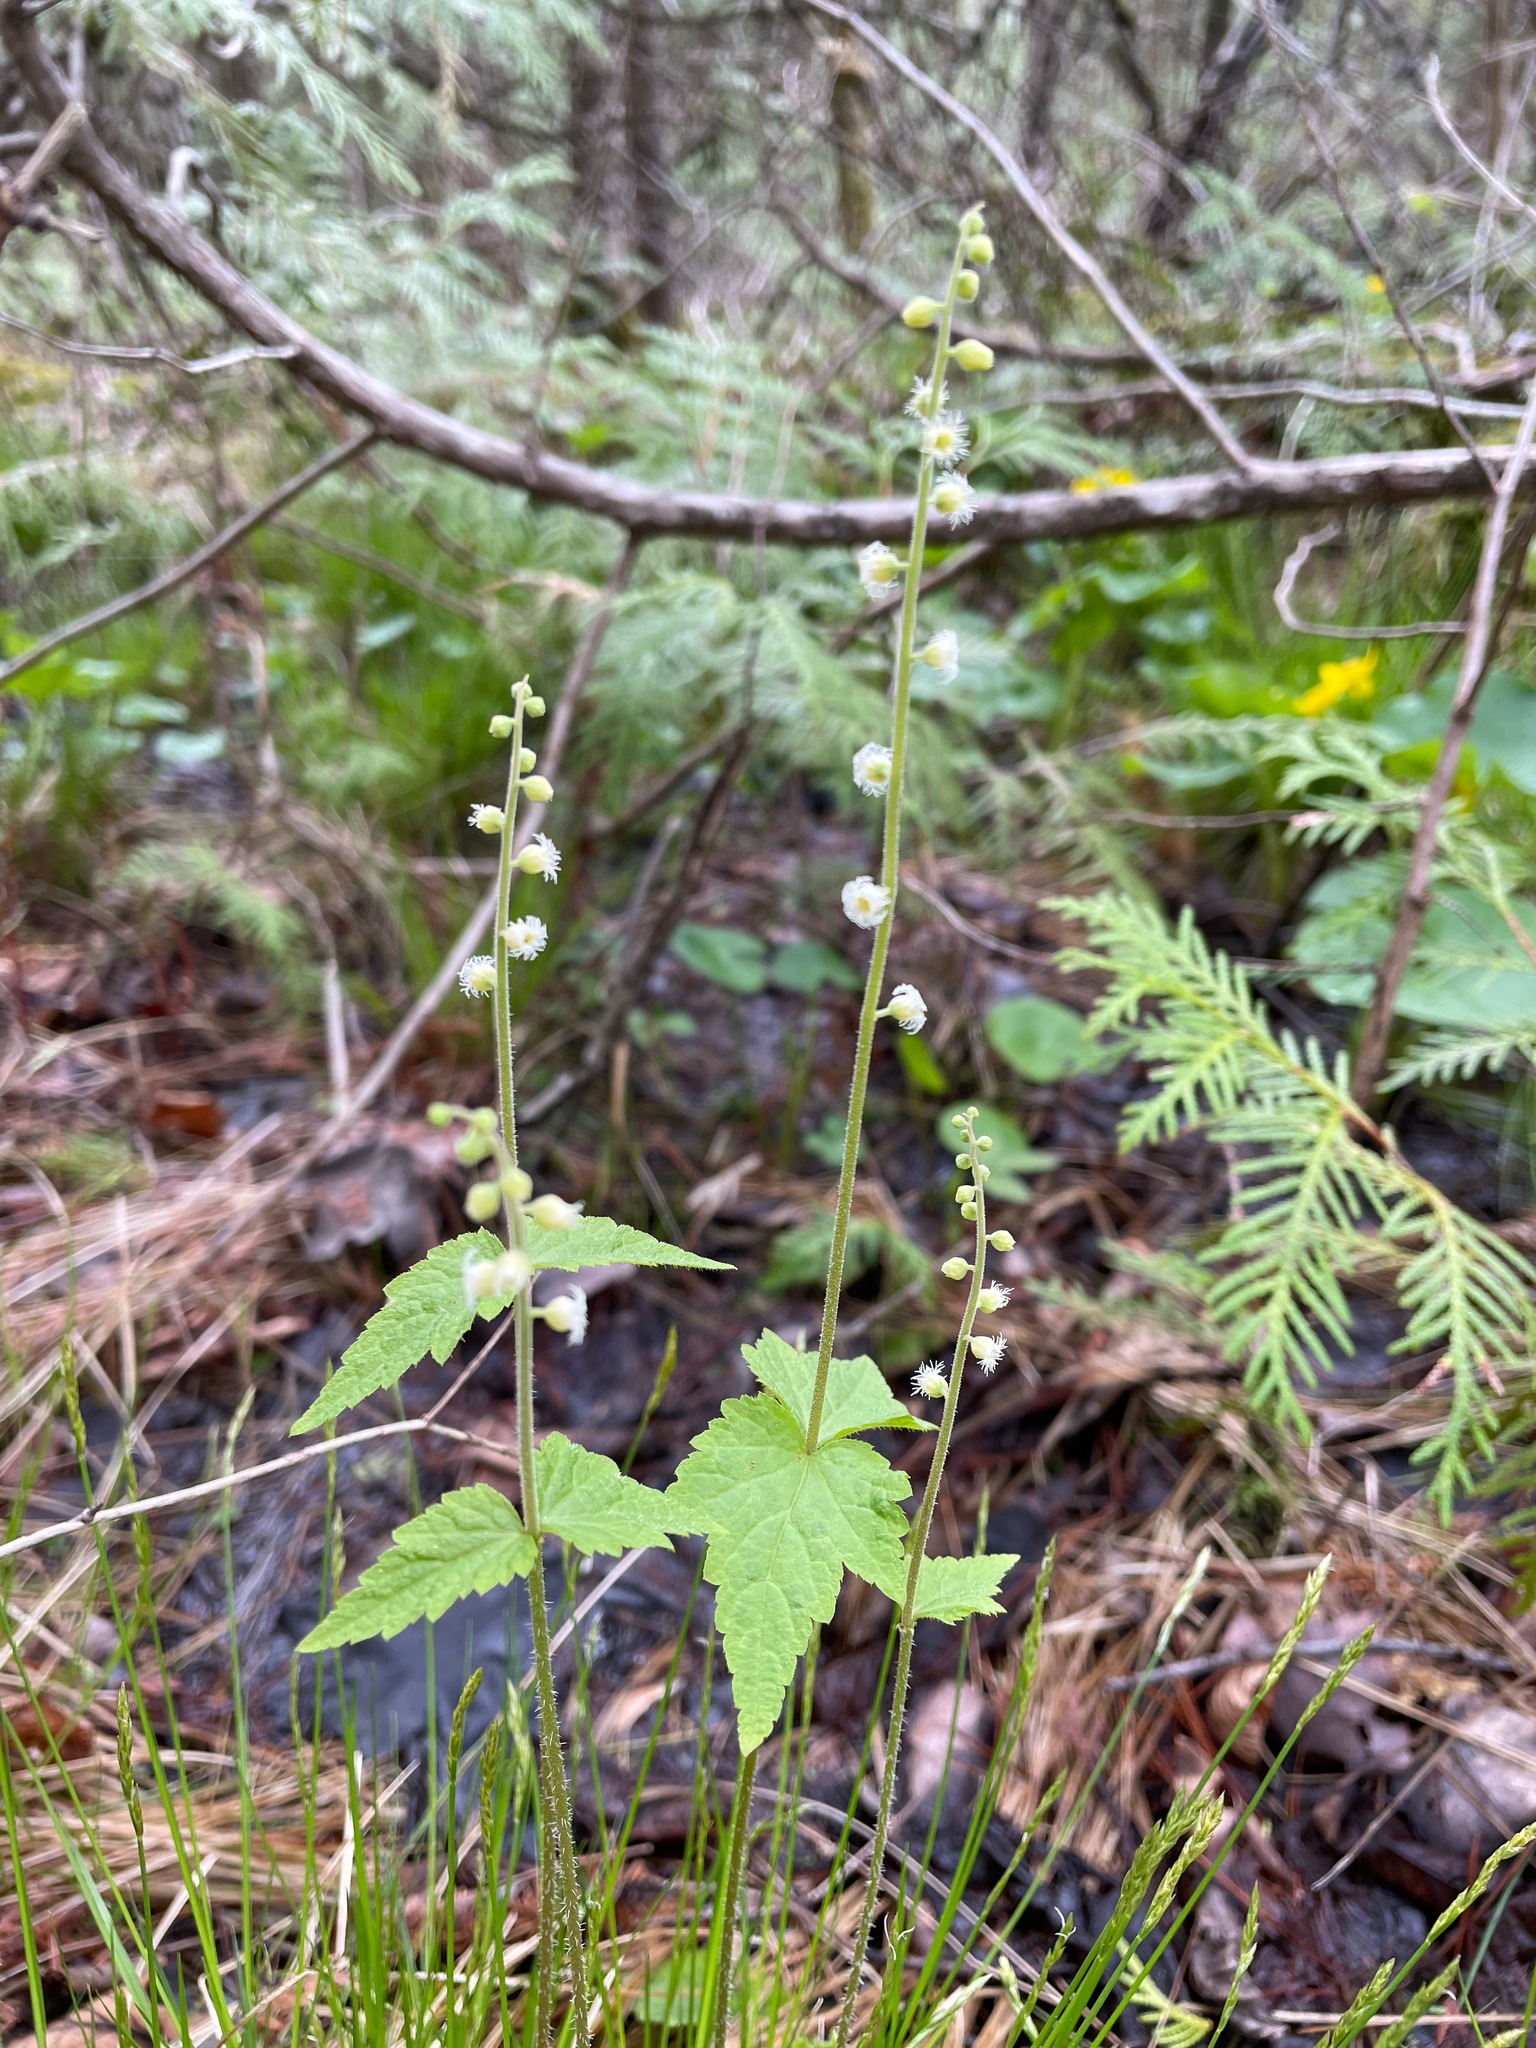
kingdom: Plantae
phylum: Tracheophyta
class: Magnoliopsida
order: Saxifragales
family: Saxifragaceae
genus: Mitella
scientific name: Mitella diphylla
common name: Coolwort
